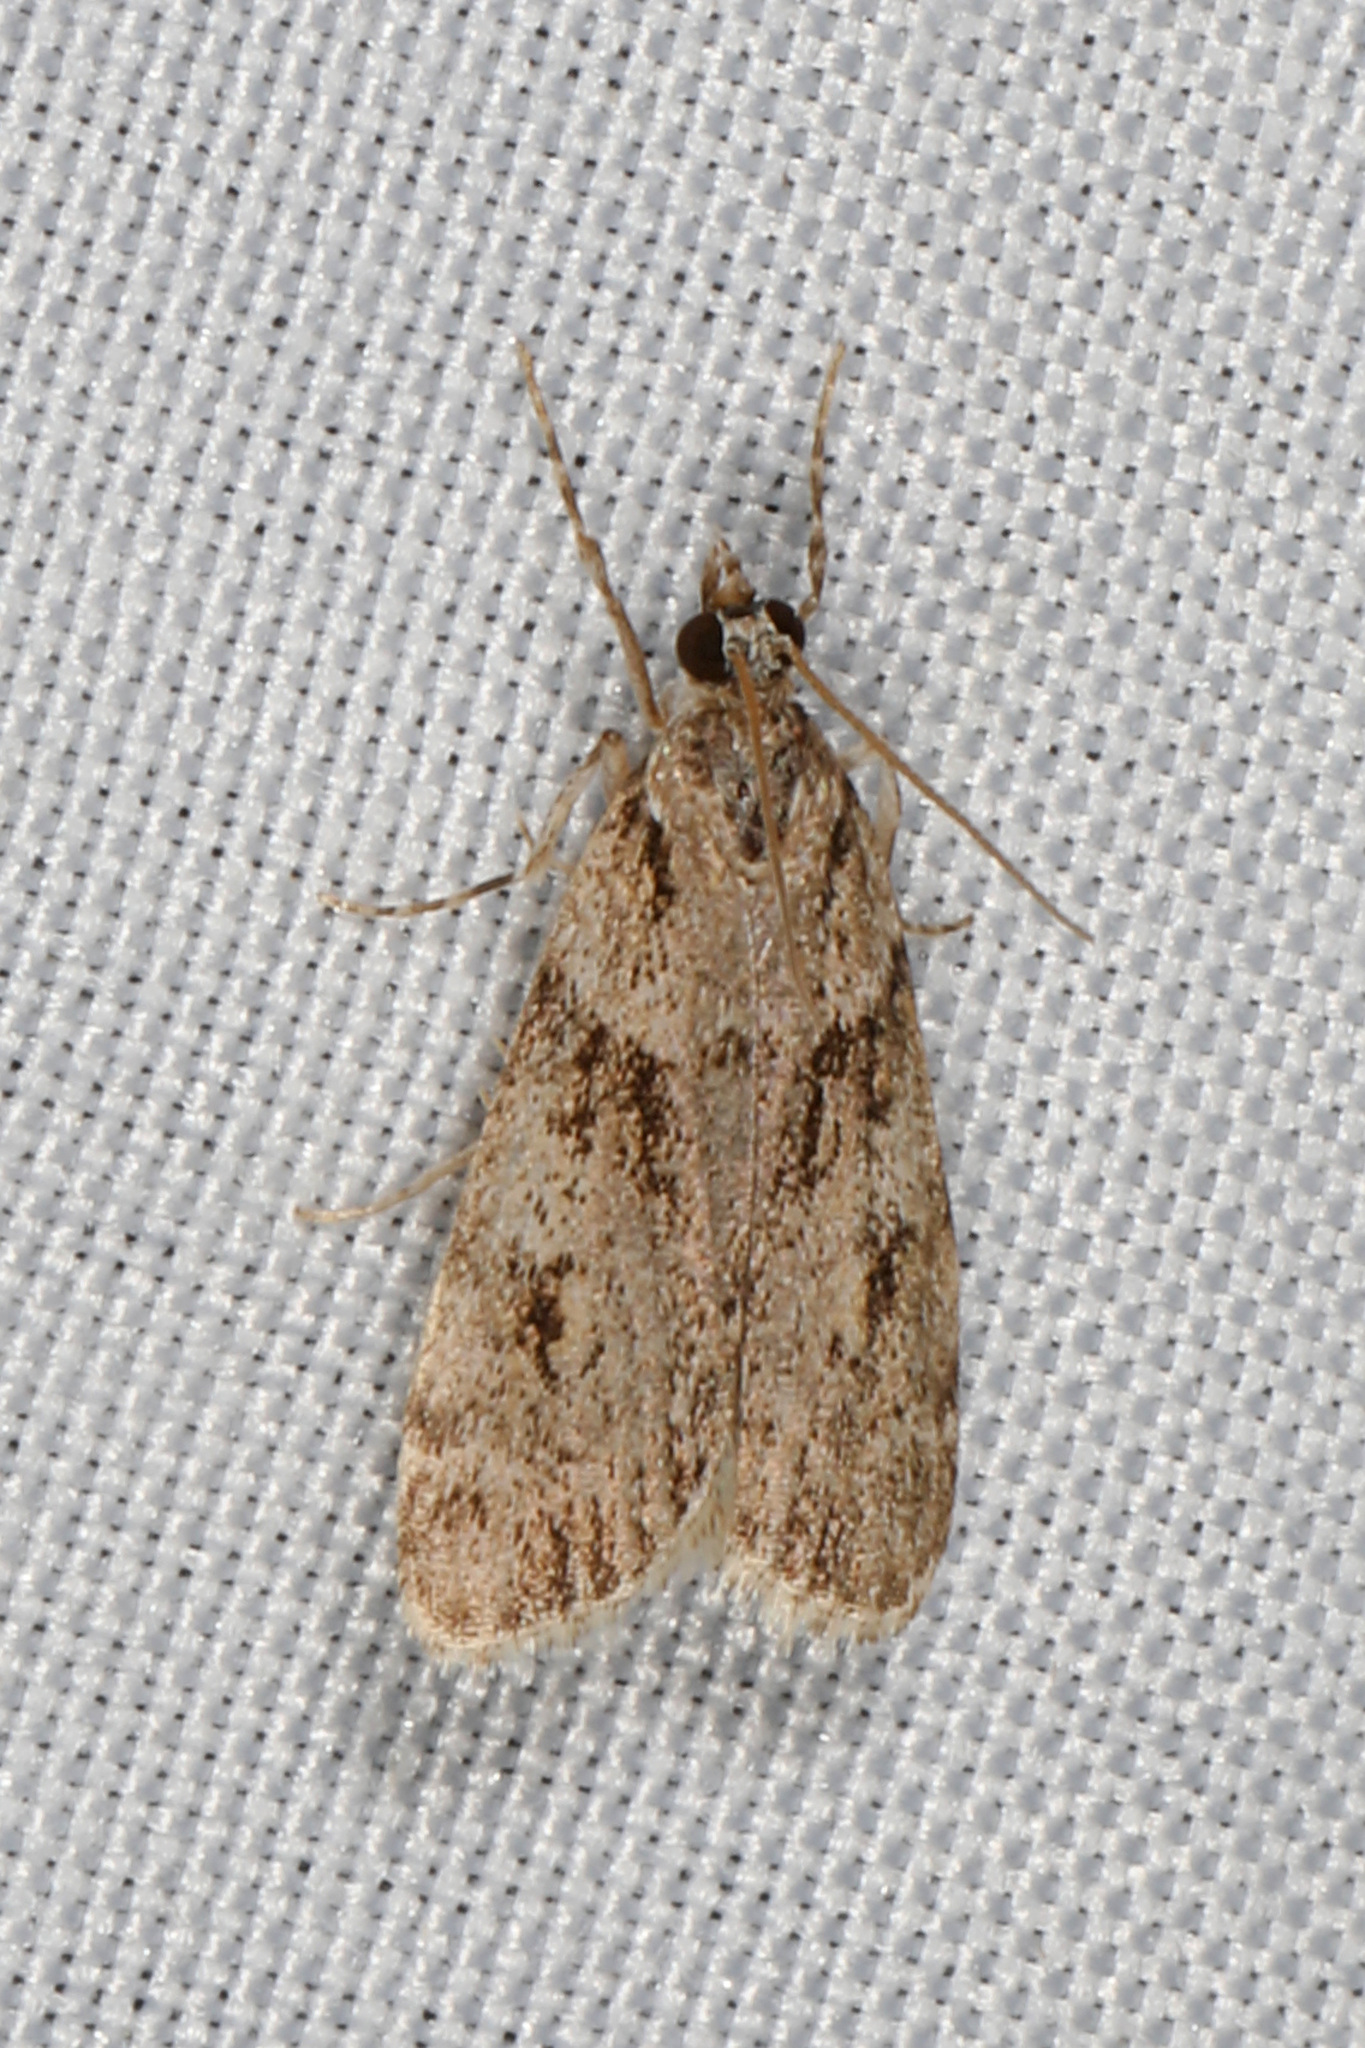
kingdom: Animalia
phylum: Arthropoda
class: Insecta
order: Lepidoptera
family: Crambidae
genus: Scoparia
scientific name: Scoparia biplagialis
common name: Double-striped scoparia moth
